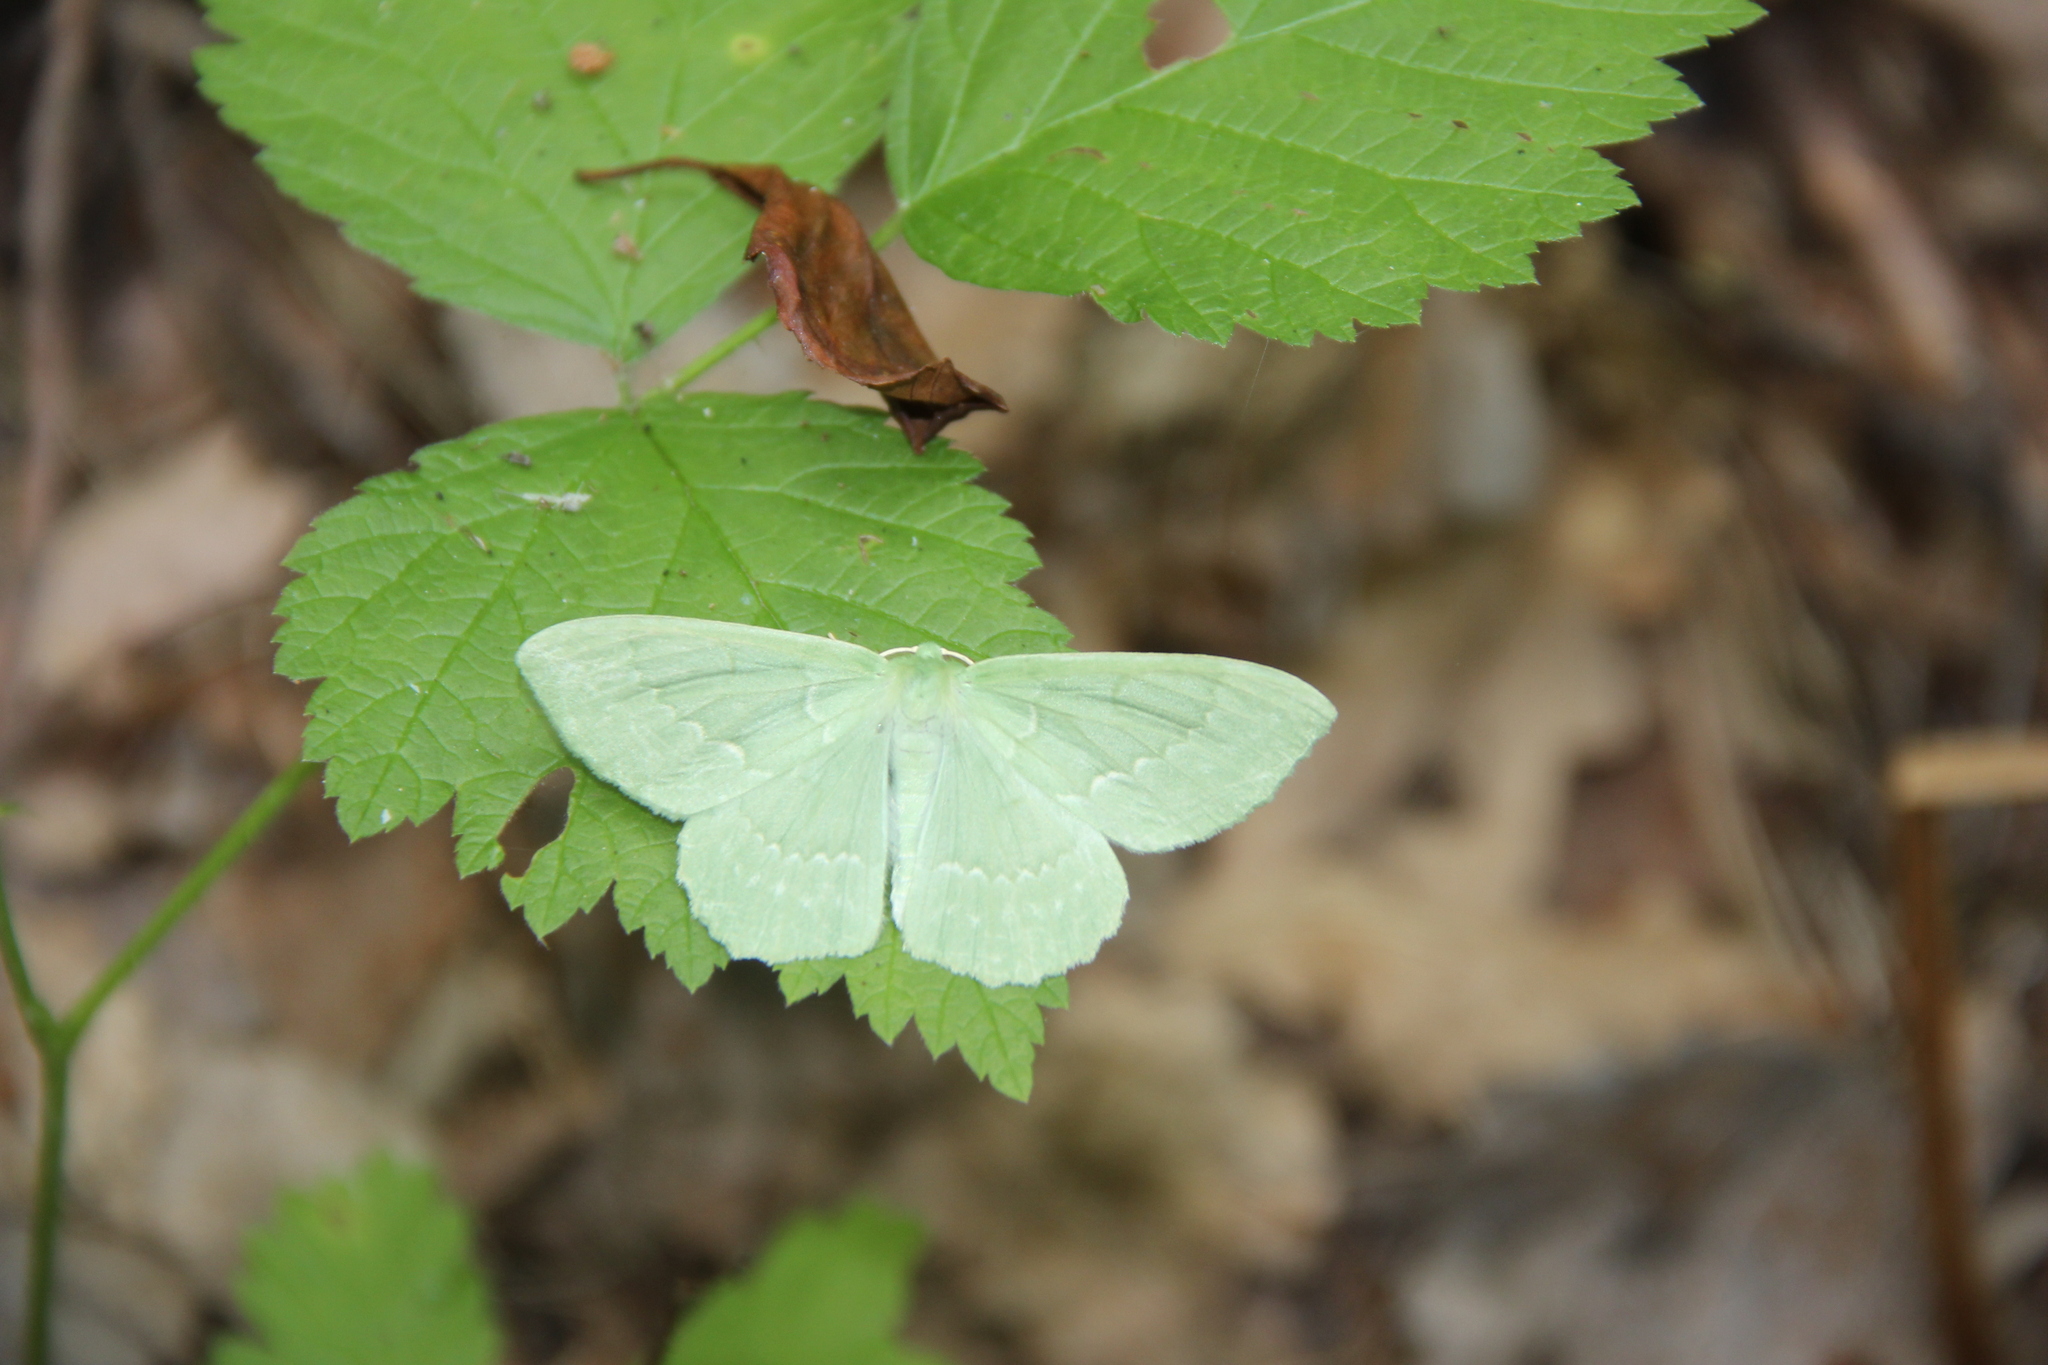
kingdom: Animalia
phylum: Arthropoda
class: Insecta
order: Lepidoptera
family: Geometridae
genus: Geometra
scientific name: Geometra papilionaria
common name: Large emerald
